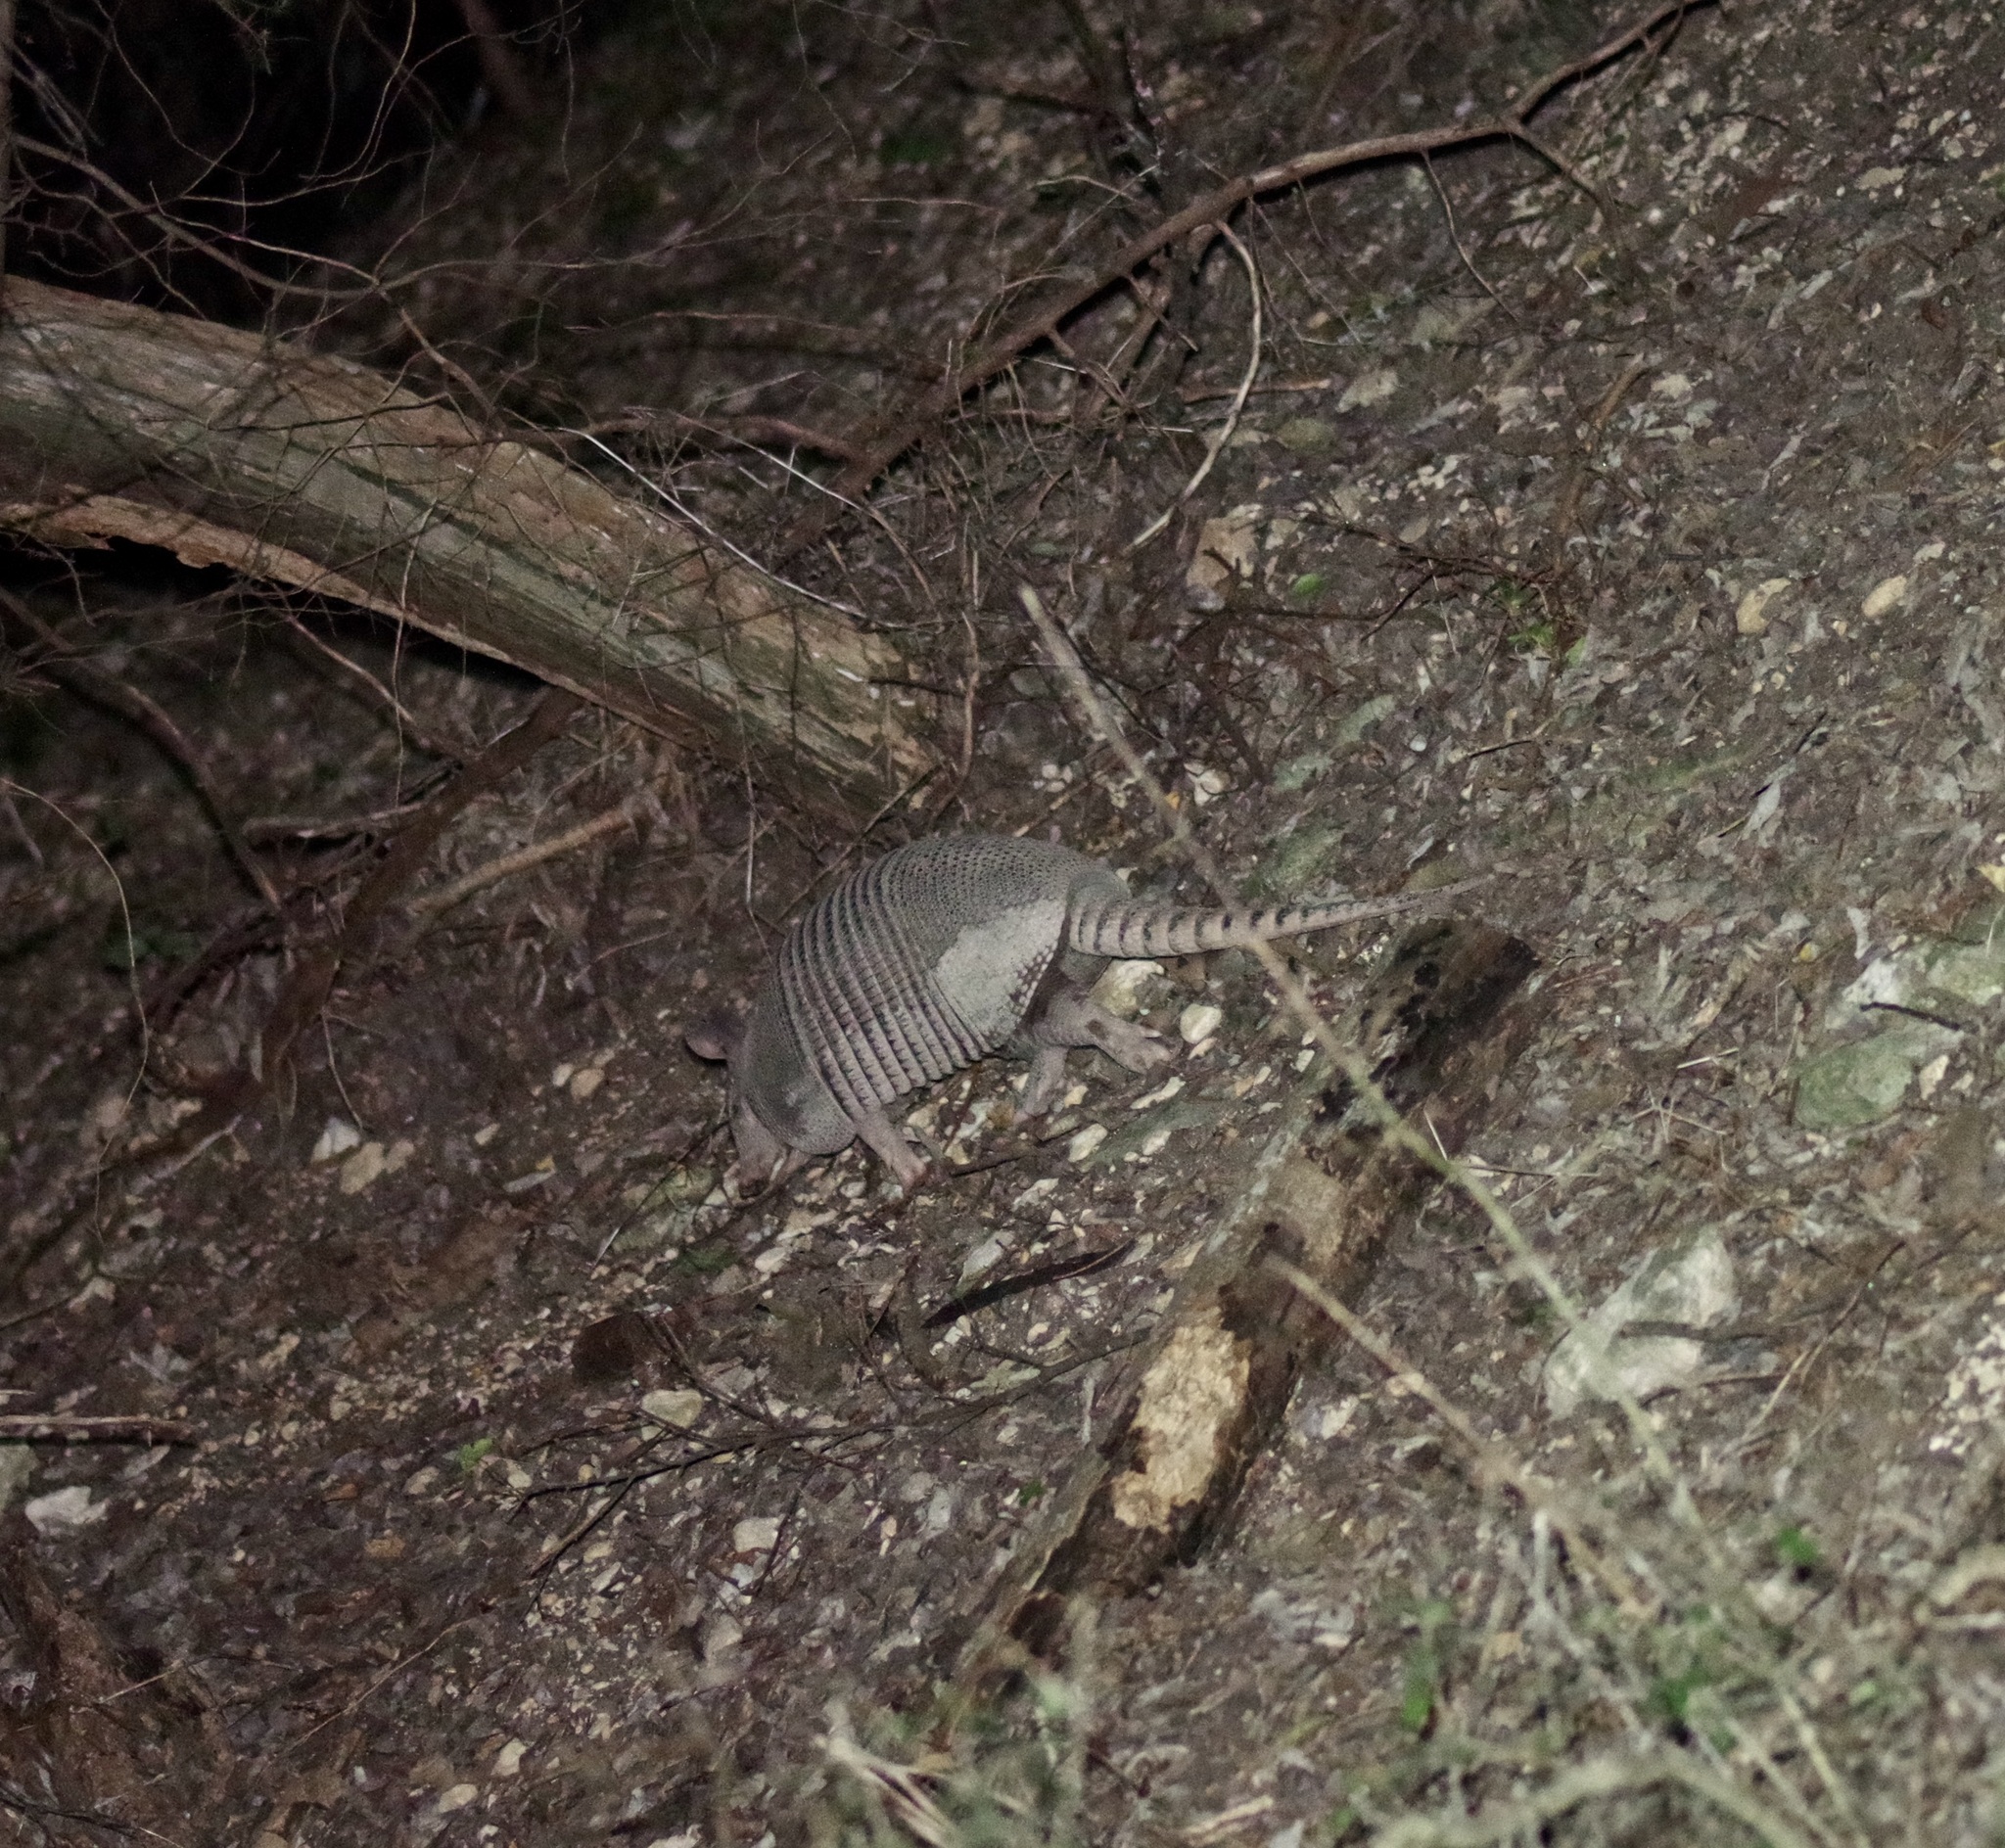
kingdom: Animalia
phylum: Chordata
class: Mammalia
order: Cingulata
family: Dasypodidae
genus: Dasypus
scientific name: Dasypus novemcinctus
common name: Nine-banded armadillo
